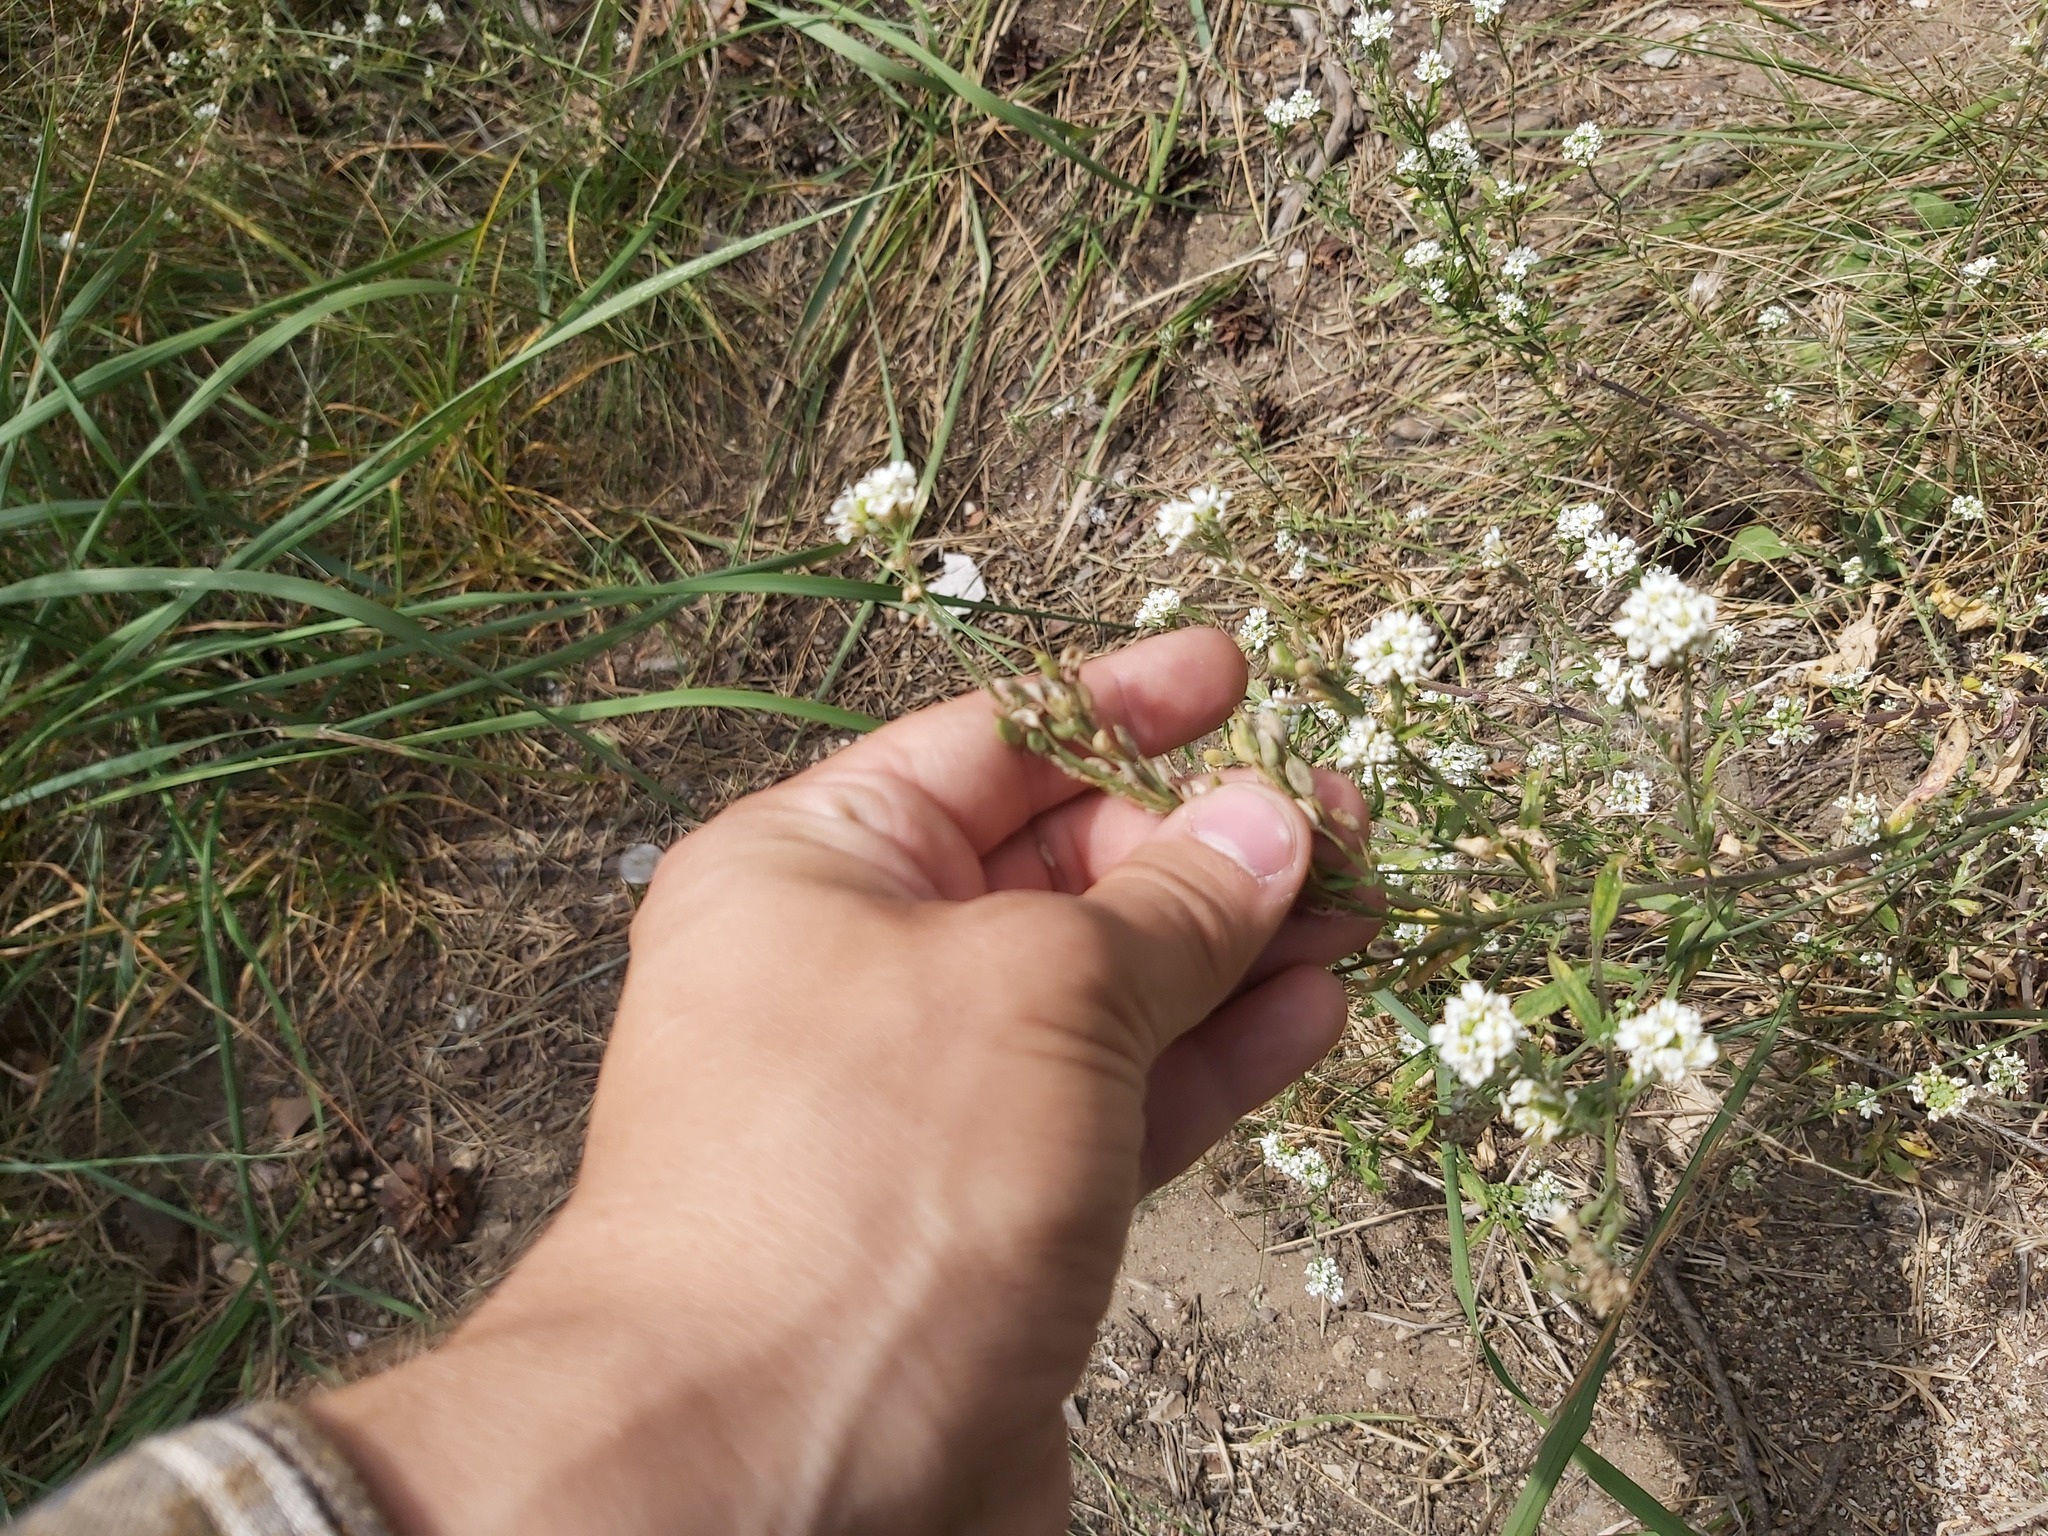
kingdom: Plantae
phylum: Tracheophyta
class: Magnoliopsida
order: Brassicales
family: Brassicaceae
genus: Berteroa
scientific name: Berteroa incana
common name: Hoary alison
